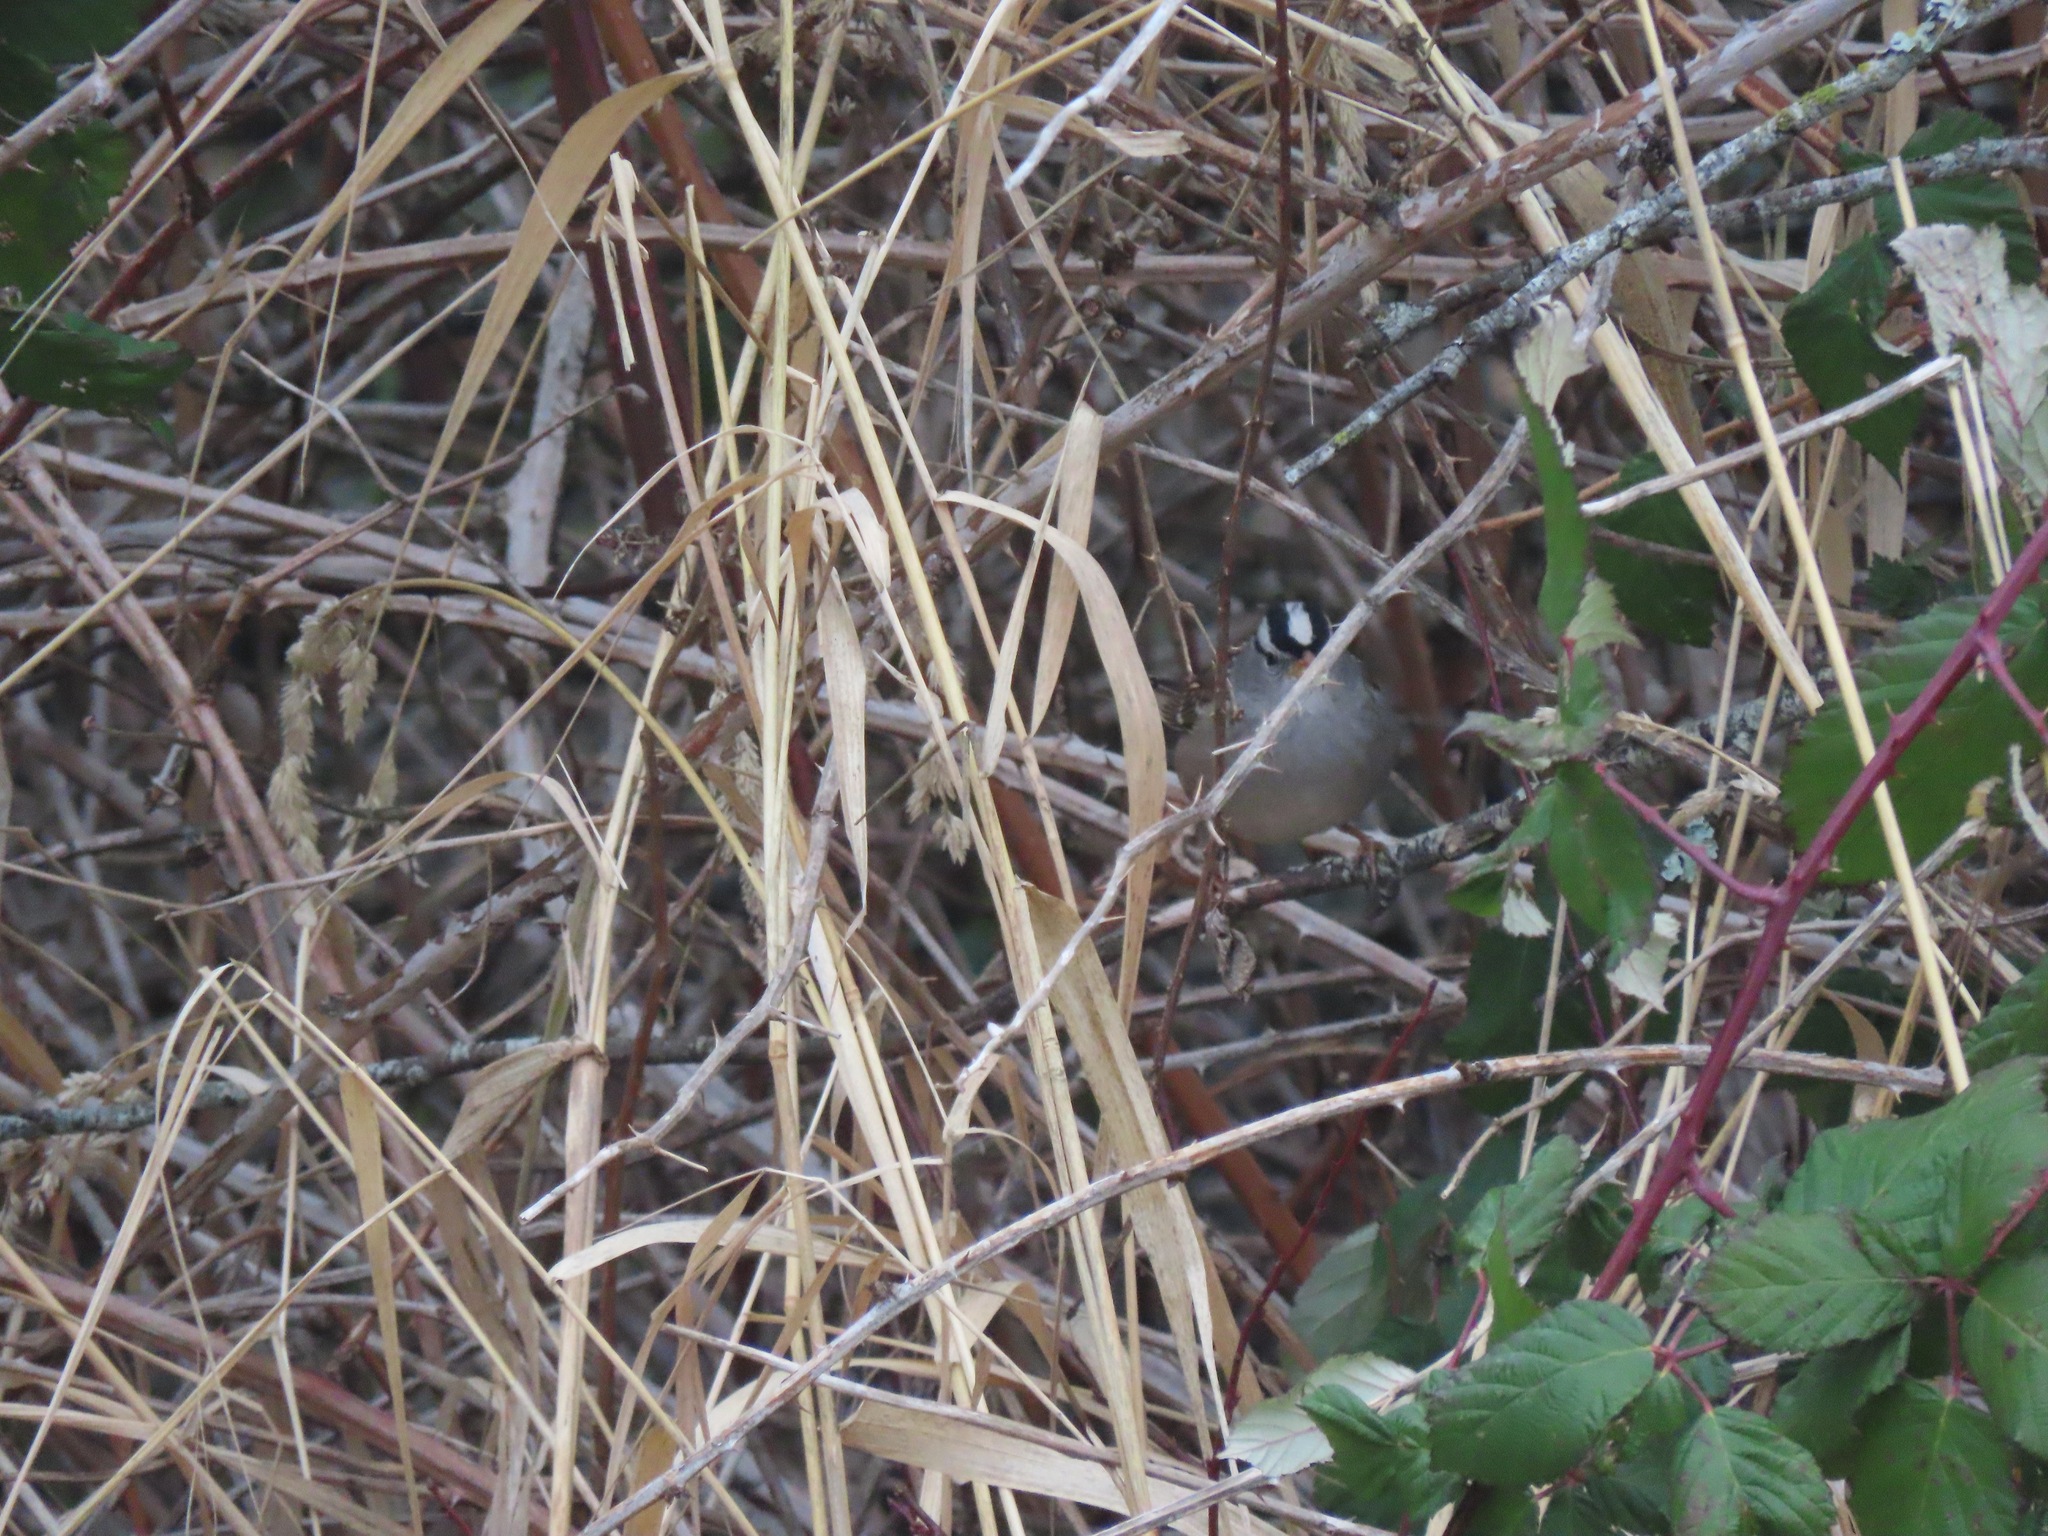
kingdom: Animalia
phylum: Chordata
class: Aves
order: Passeriformes
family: Passerellidae
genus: Zonotrichia
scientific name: Zonotrichia leucophrys
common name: White-crowned sparrow
